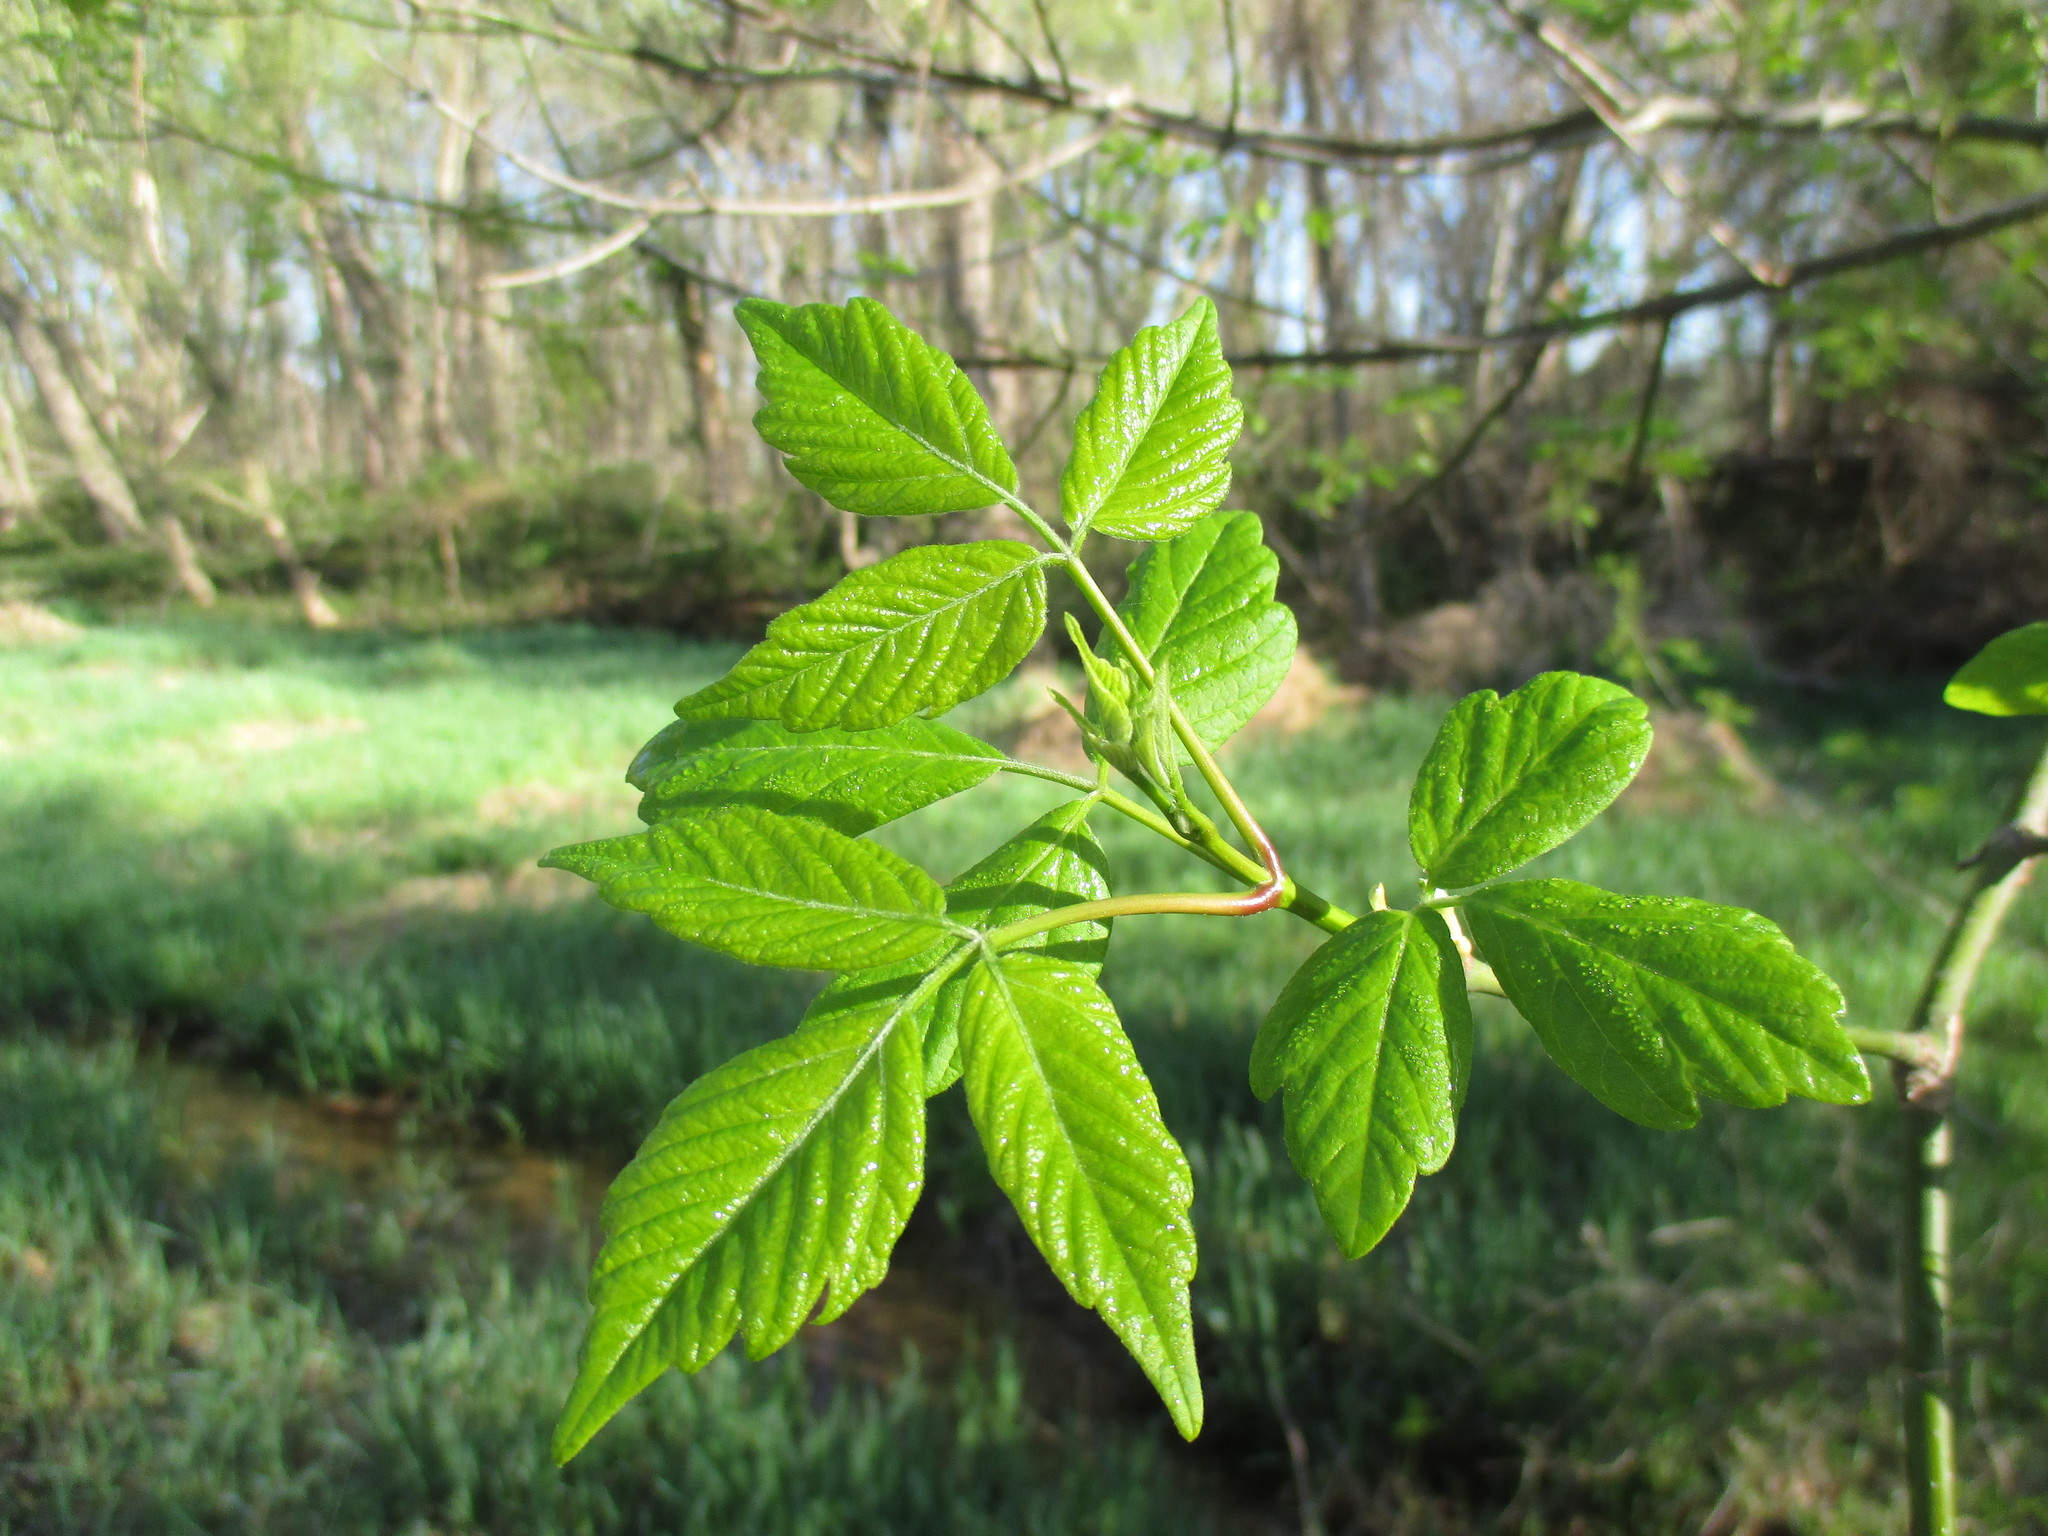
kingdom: Plantae
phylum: Tracheophyta
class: Magnoliopsida
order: Sapindales
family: Sapindaceae
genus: Acer
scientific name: Acer negundo
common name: Ashleaf maple
